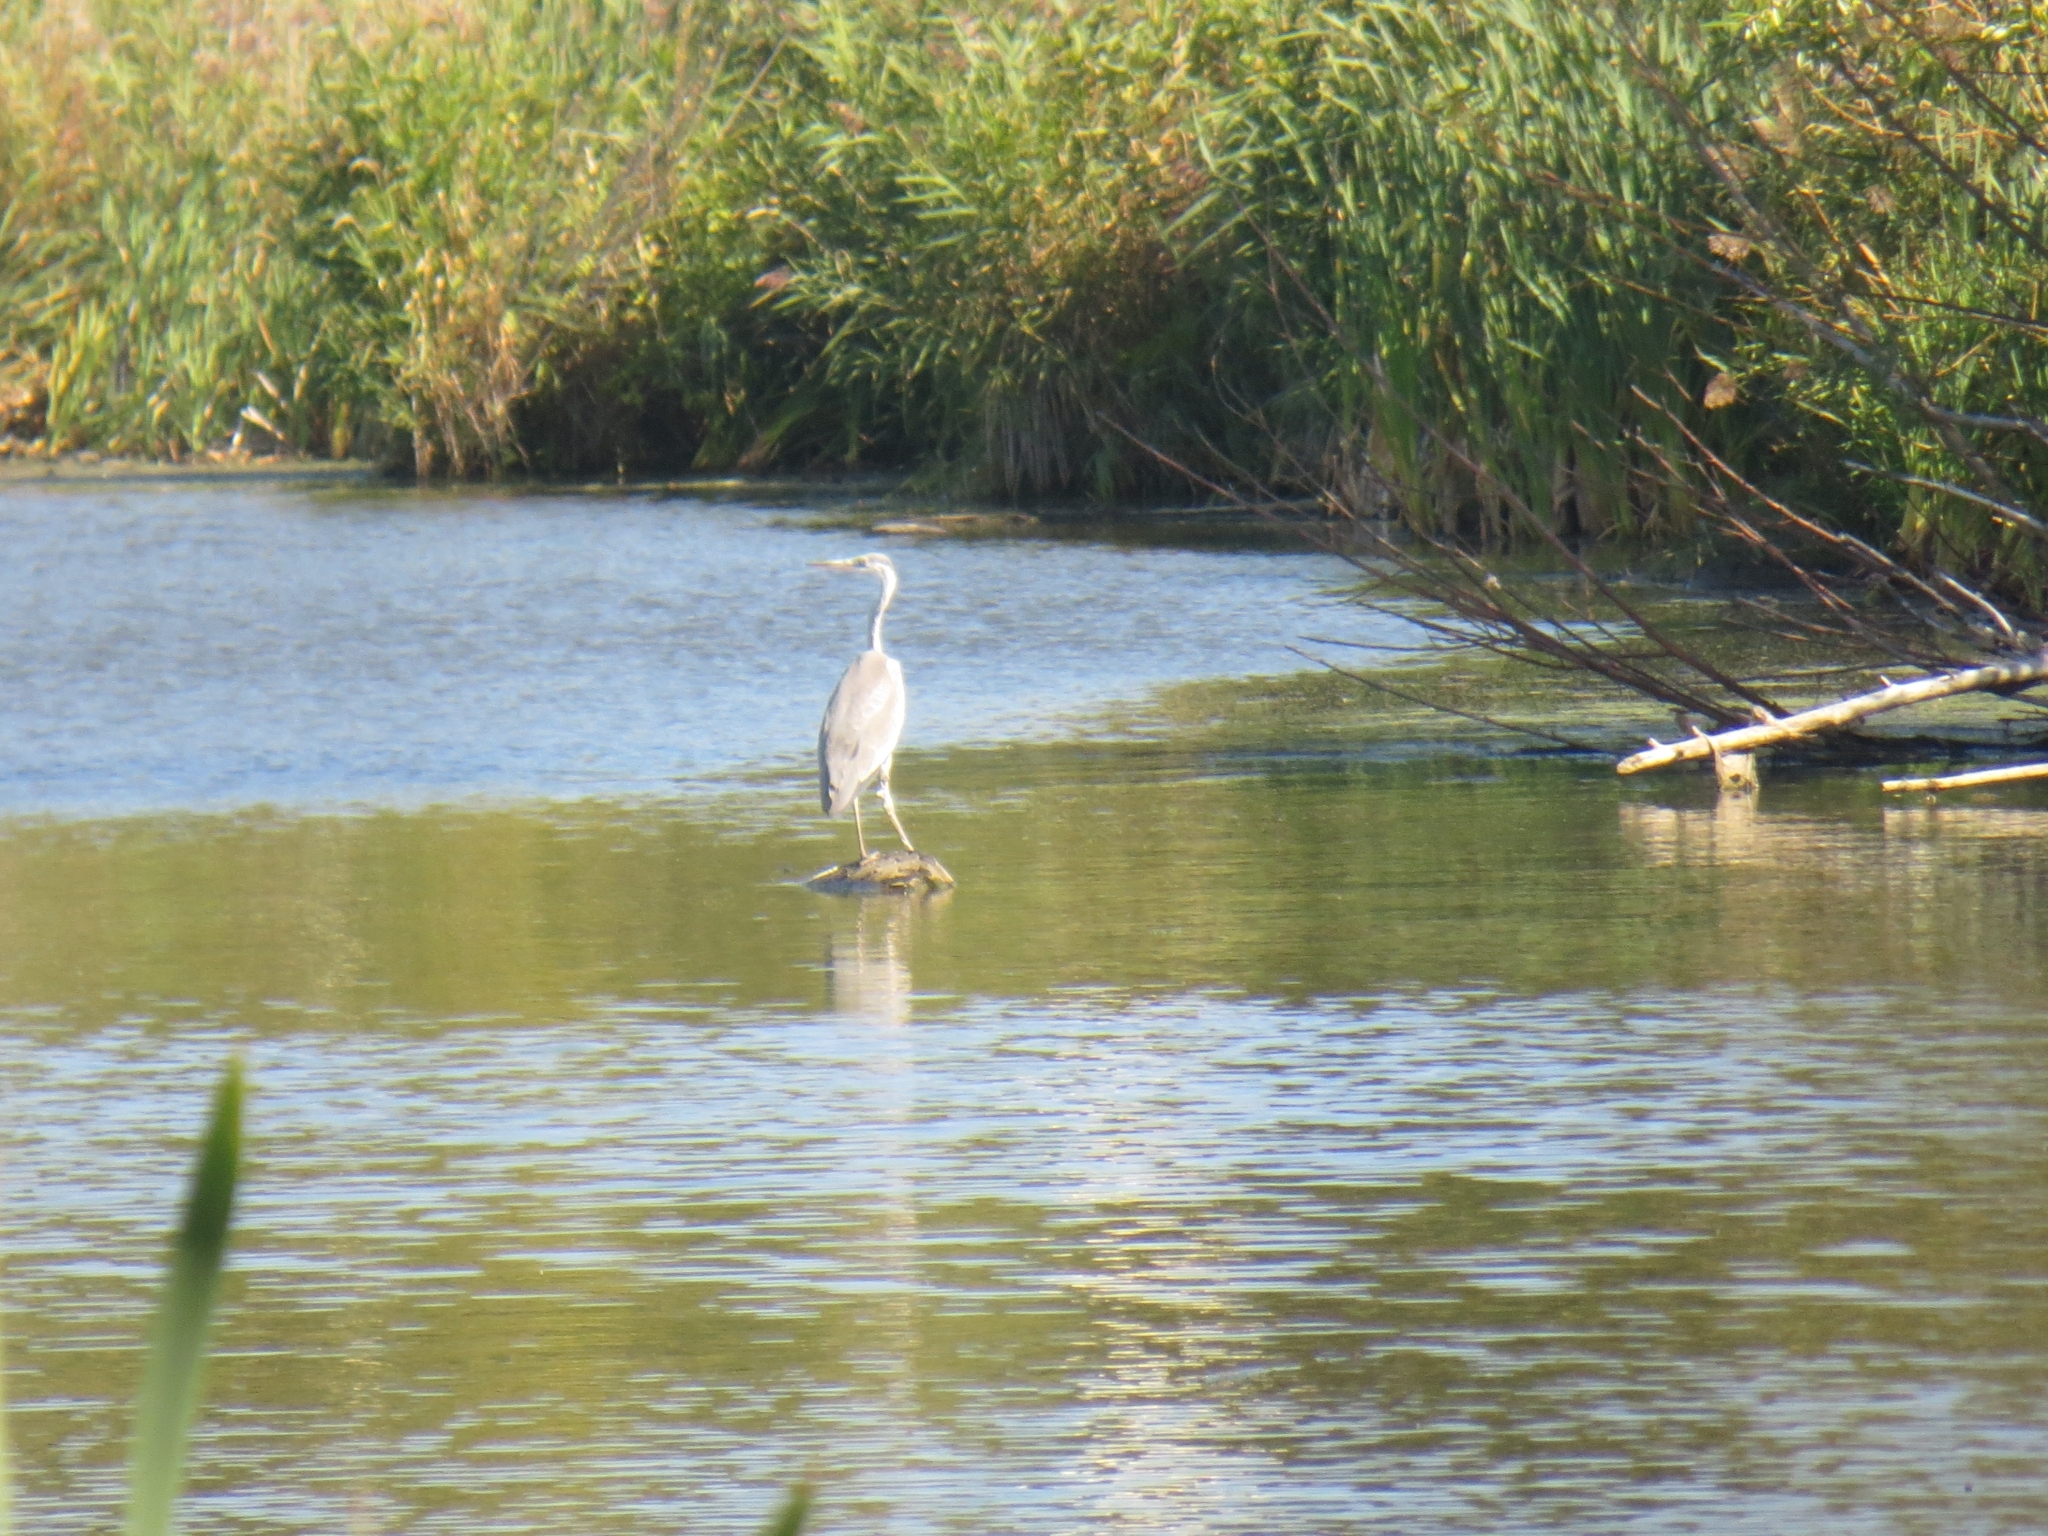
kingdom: Animalia
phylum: Chordata
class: Aves
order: Pelecaniformes
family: Ardeidae
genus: Ardea
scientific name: Ardea cinerea
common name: Grey heron
